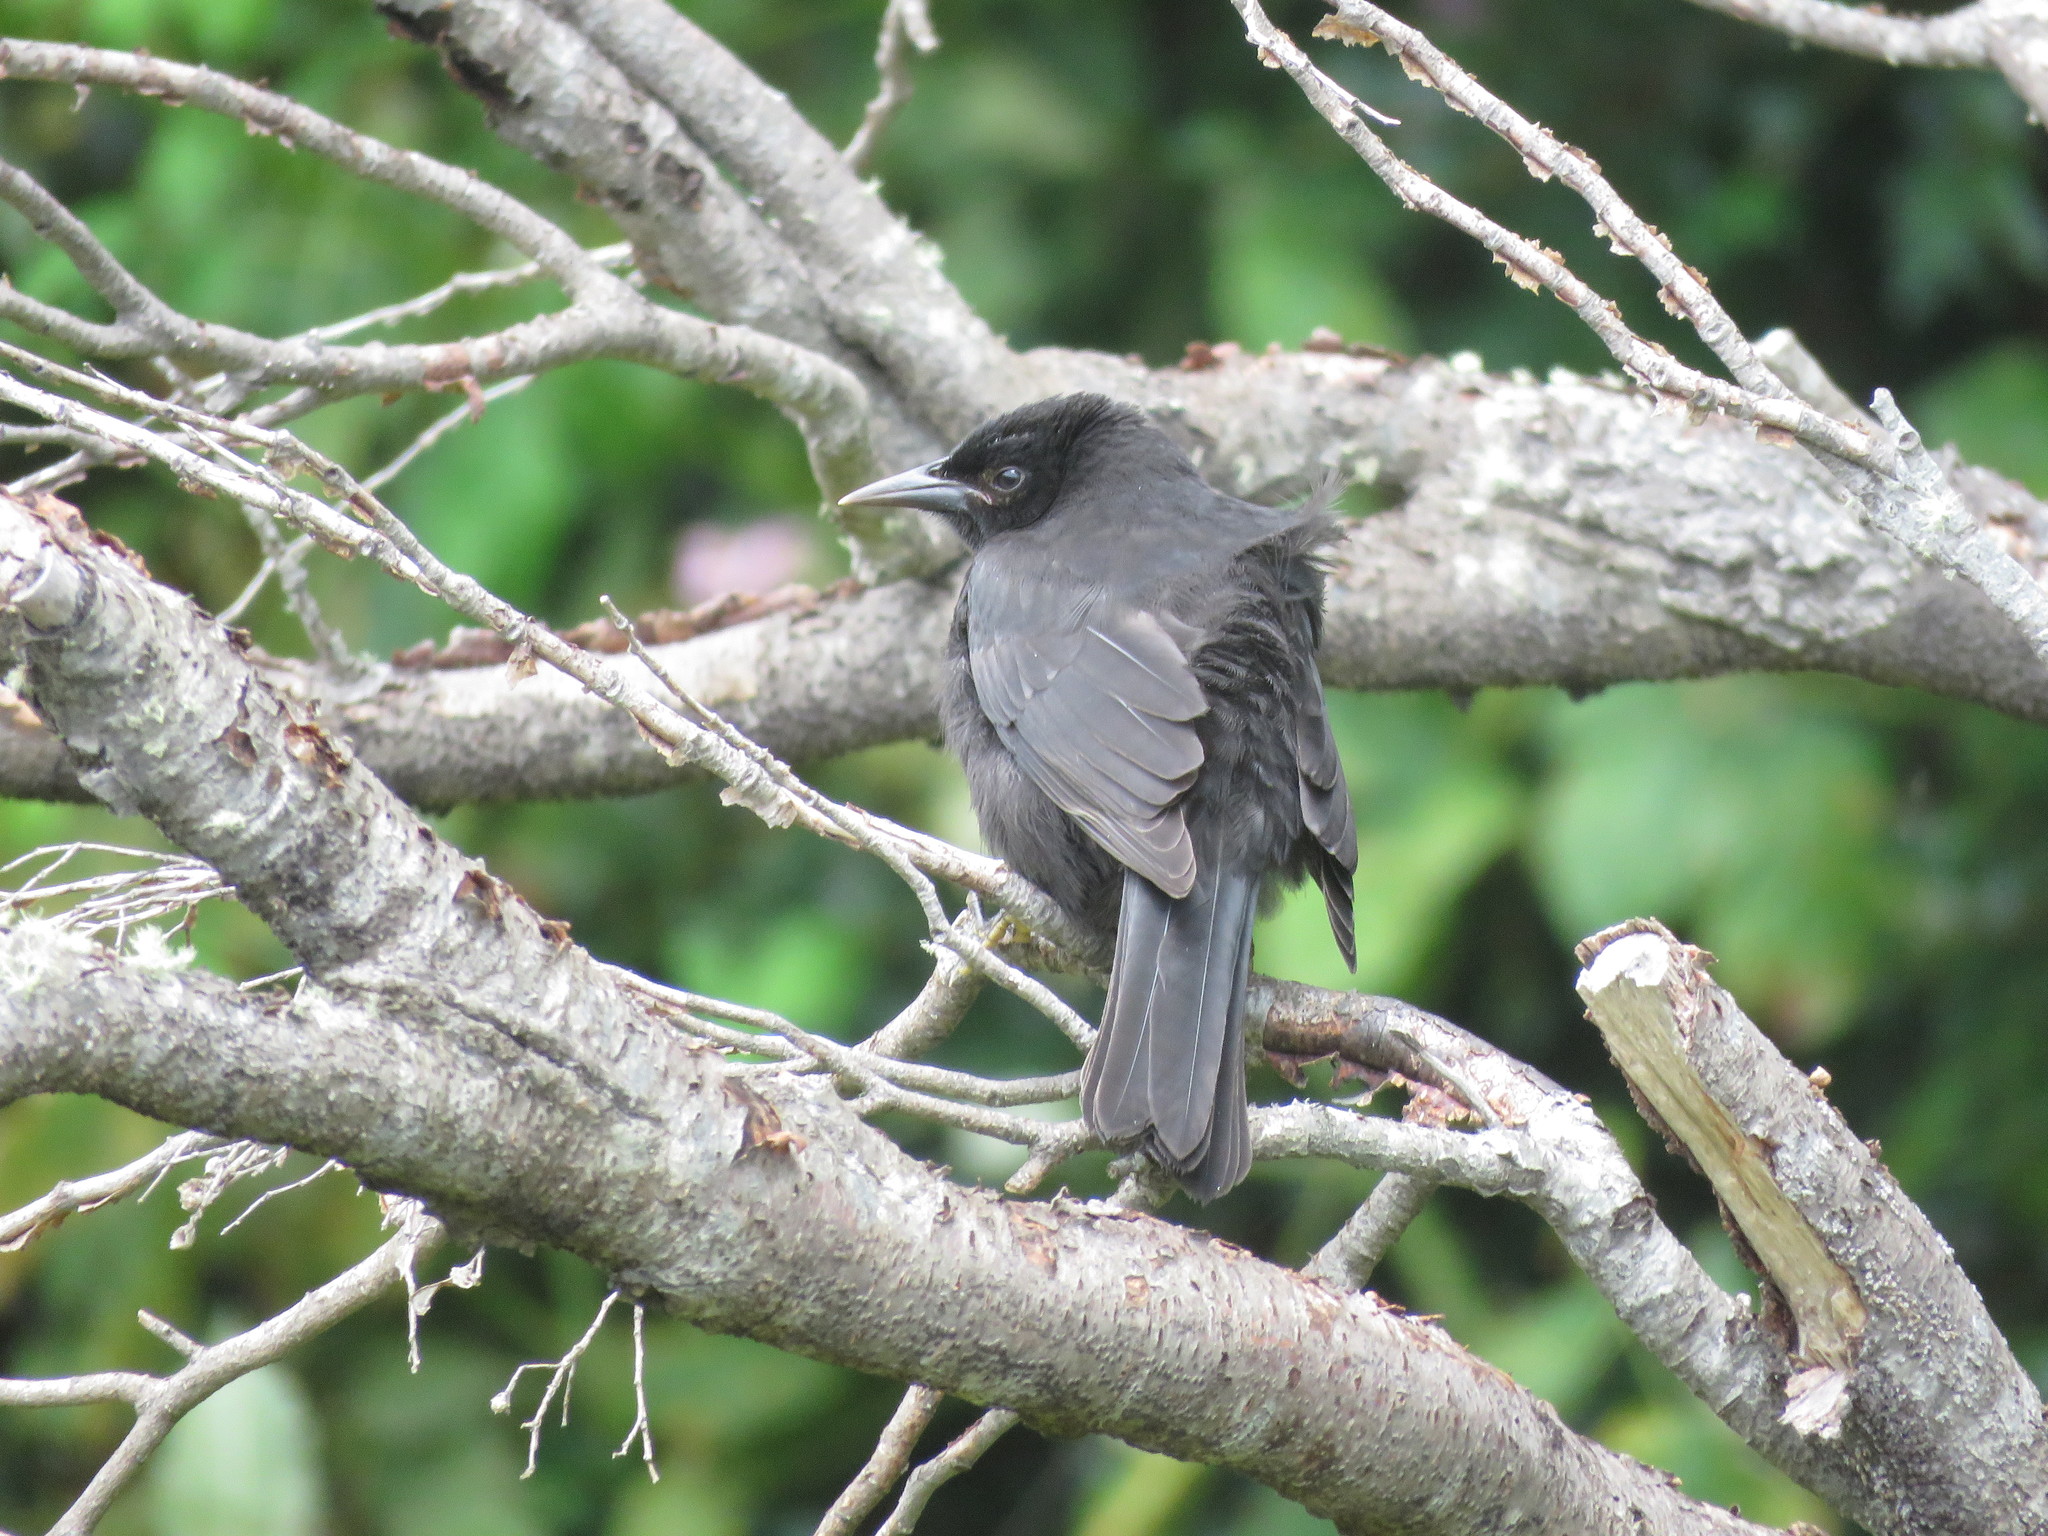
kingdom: Animalia
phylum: Chordata
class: Aves
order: Passeriformes
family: Icteridae
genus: Curaeus
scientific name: Curaeus curaeus
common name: Austral blackbird
